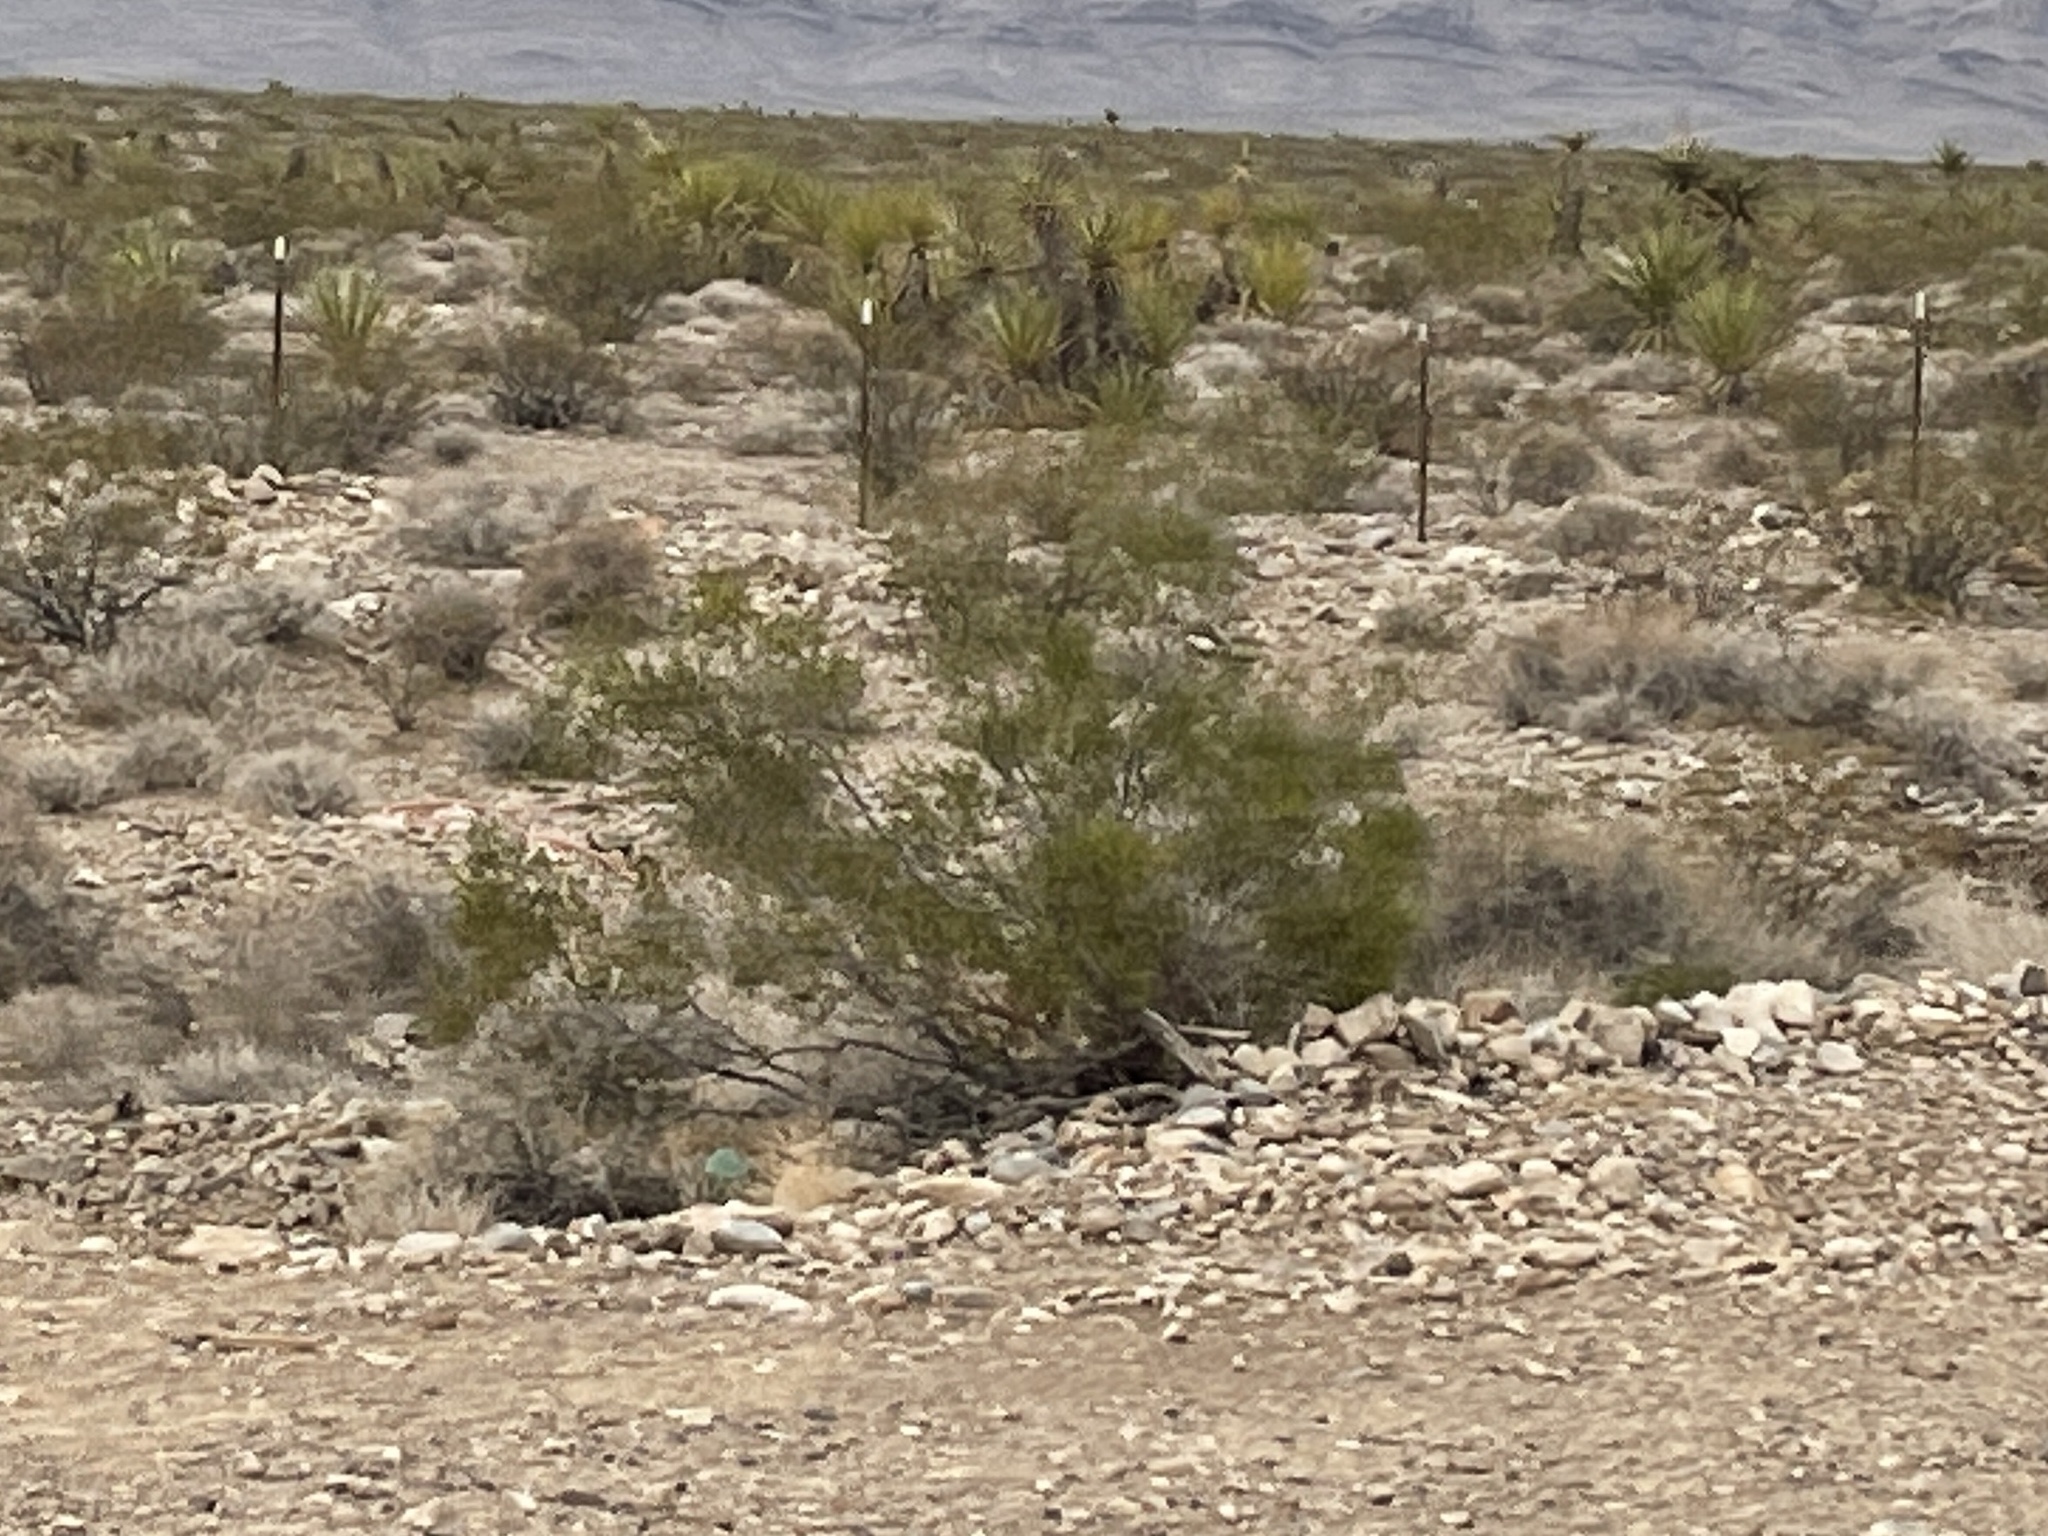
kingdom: Plantae
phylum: Tracheophyta
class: Magnoliopsida
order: Zygophyllales
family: Zygophyllaceae
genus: Larrea
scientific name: Larrea tridentata
